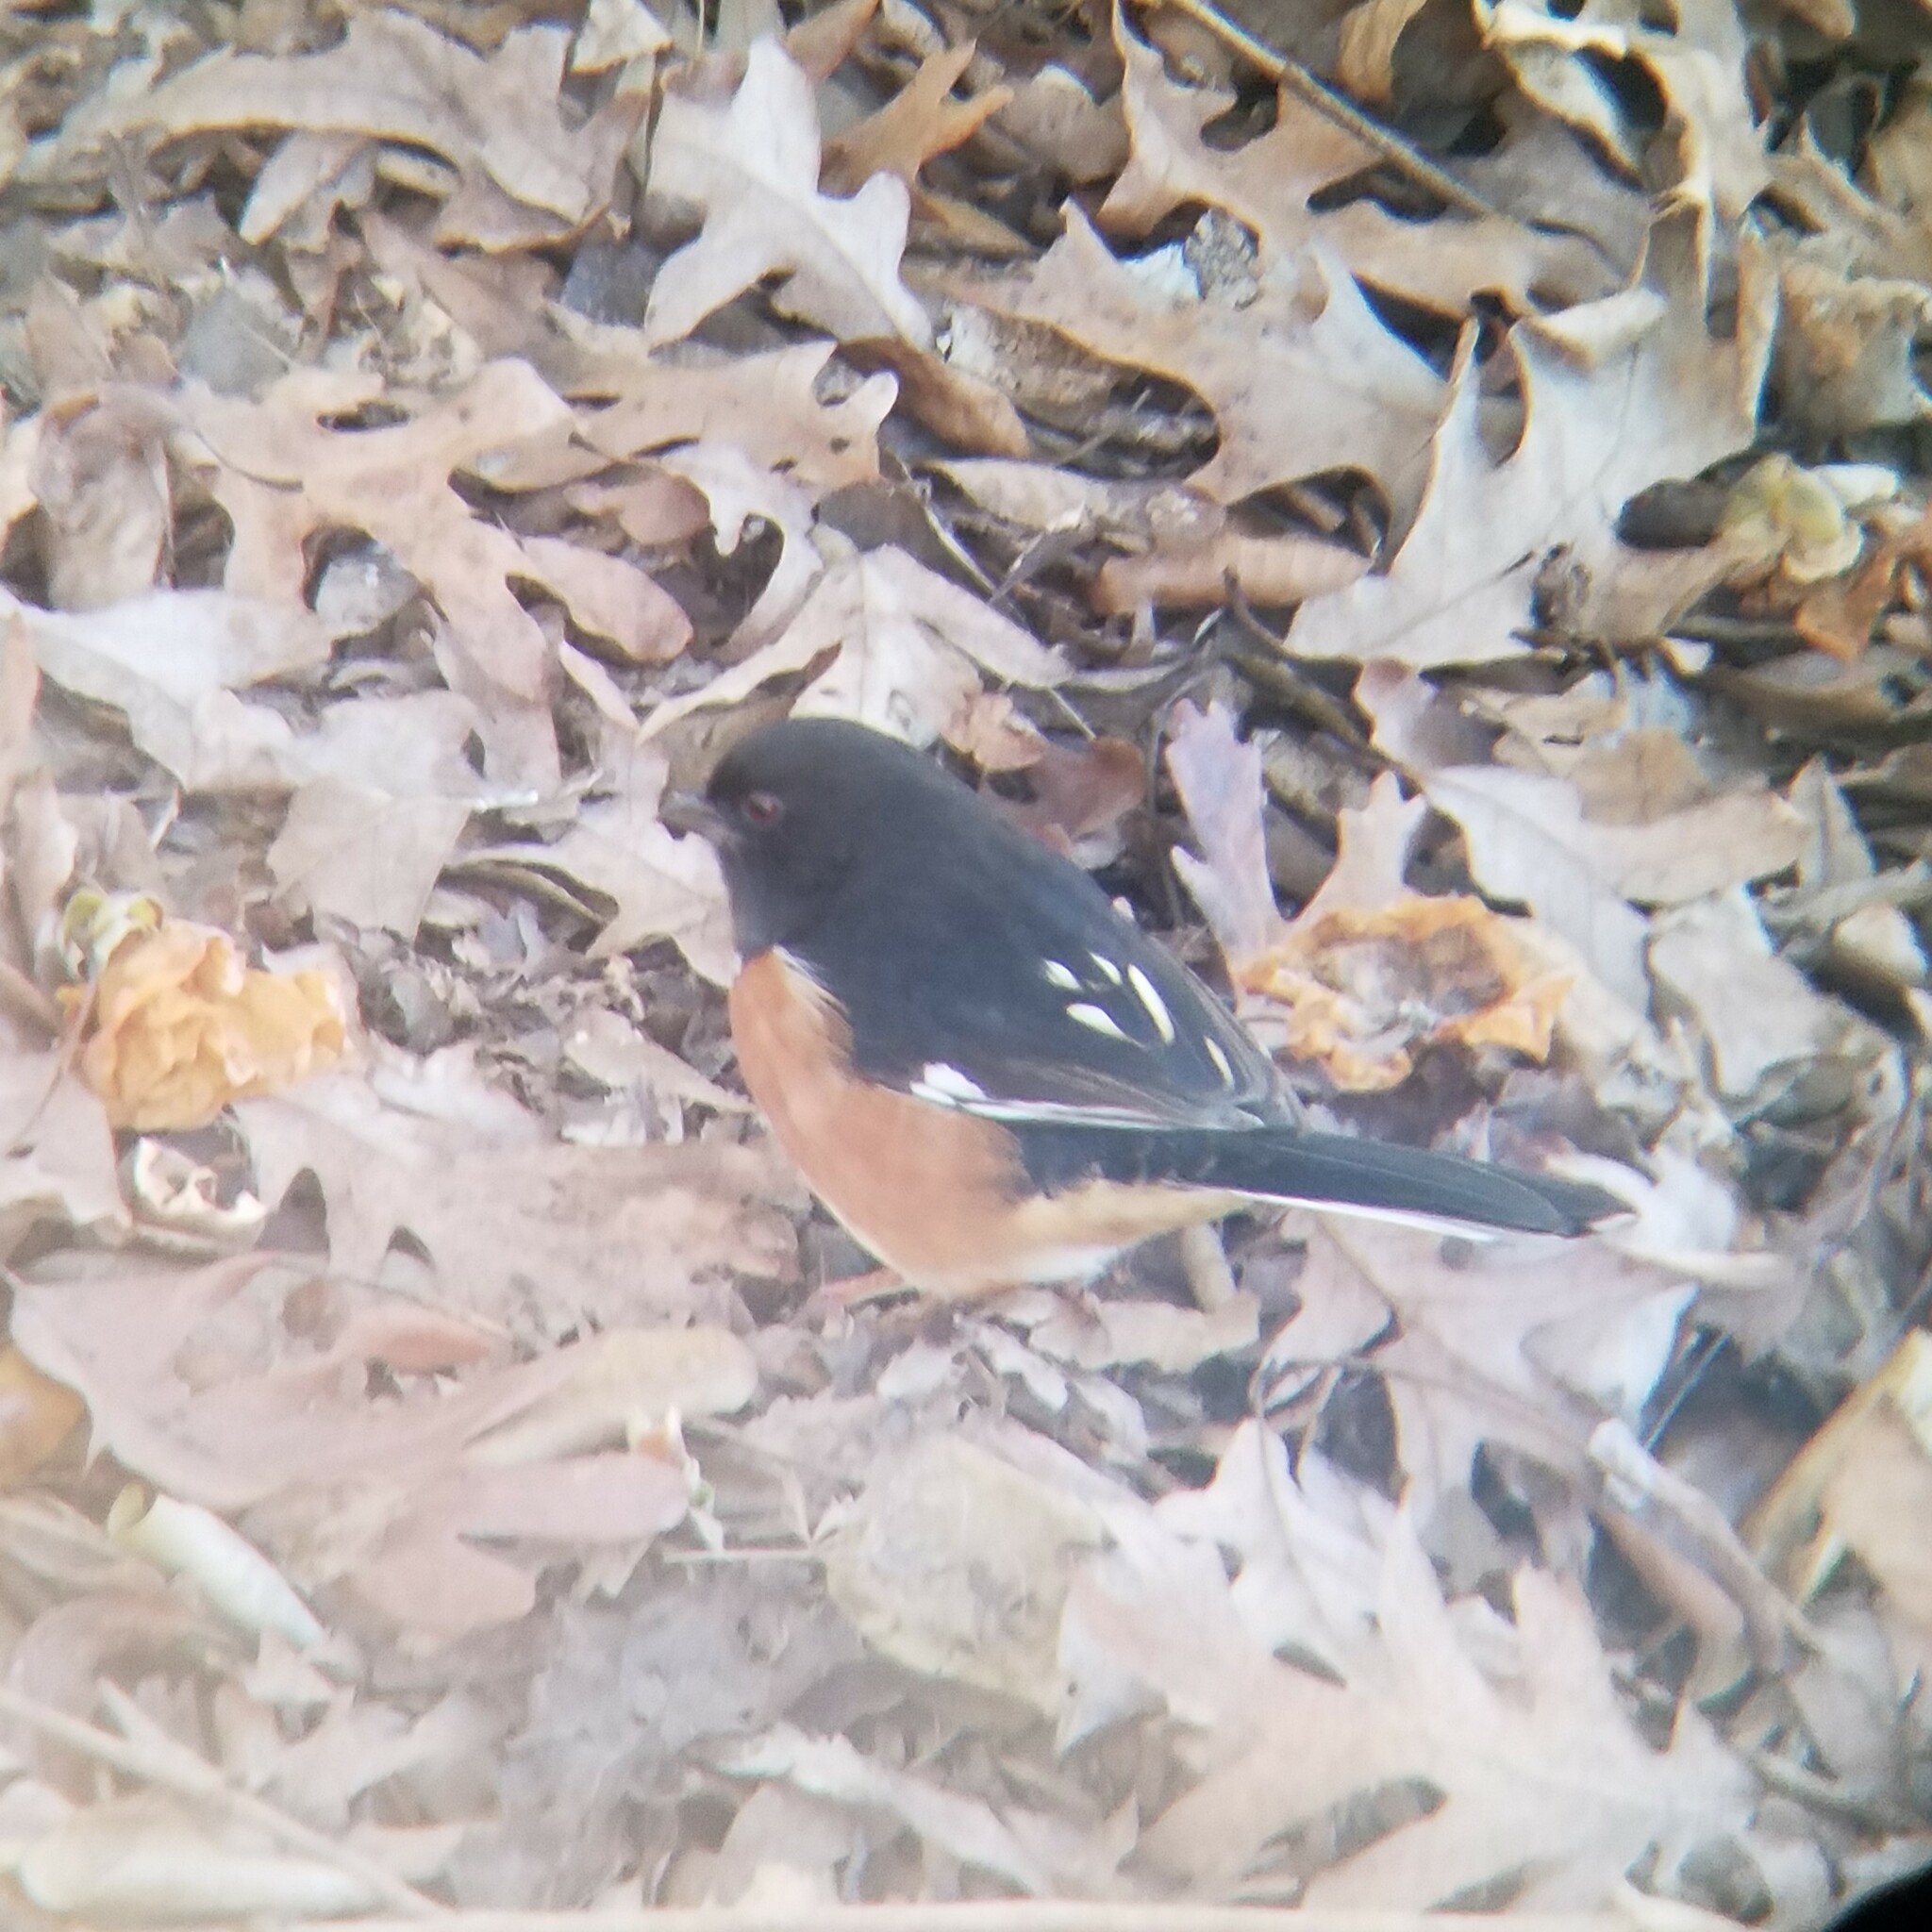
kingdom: Animalia
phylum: Chordata
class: Aves
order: Passeriformes
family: Passerellidae
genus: Pipilo
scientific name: Pipilo erythrophthalmus
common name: Eastern towhee
